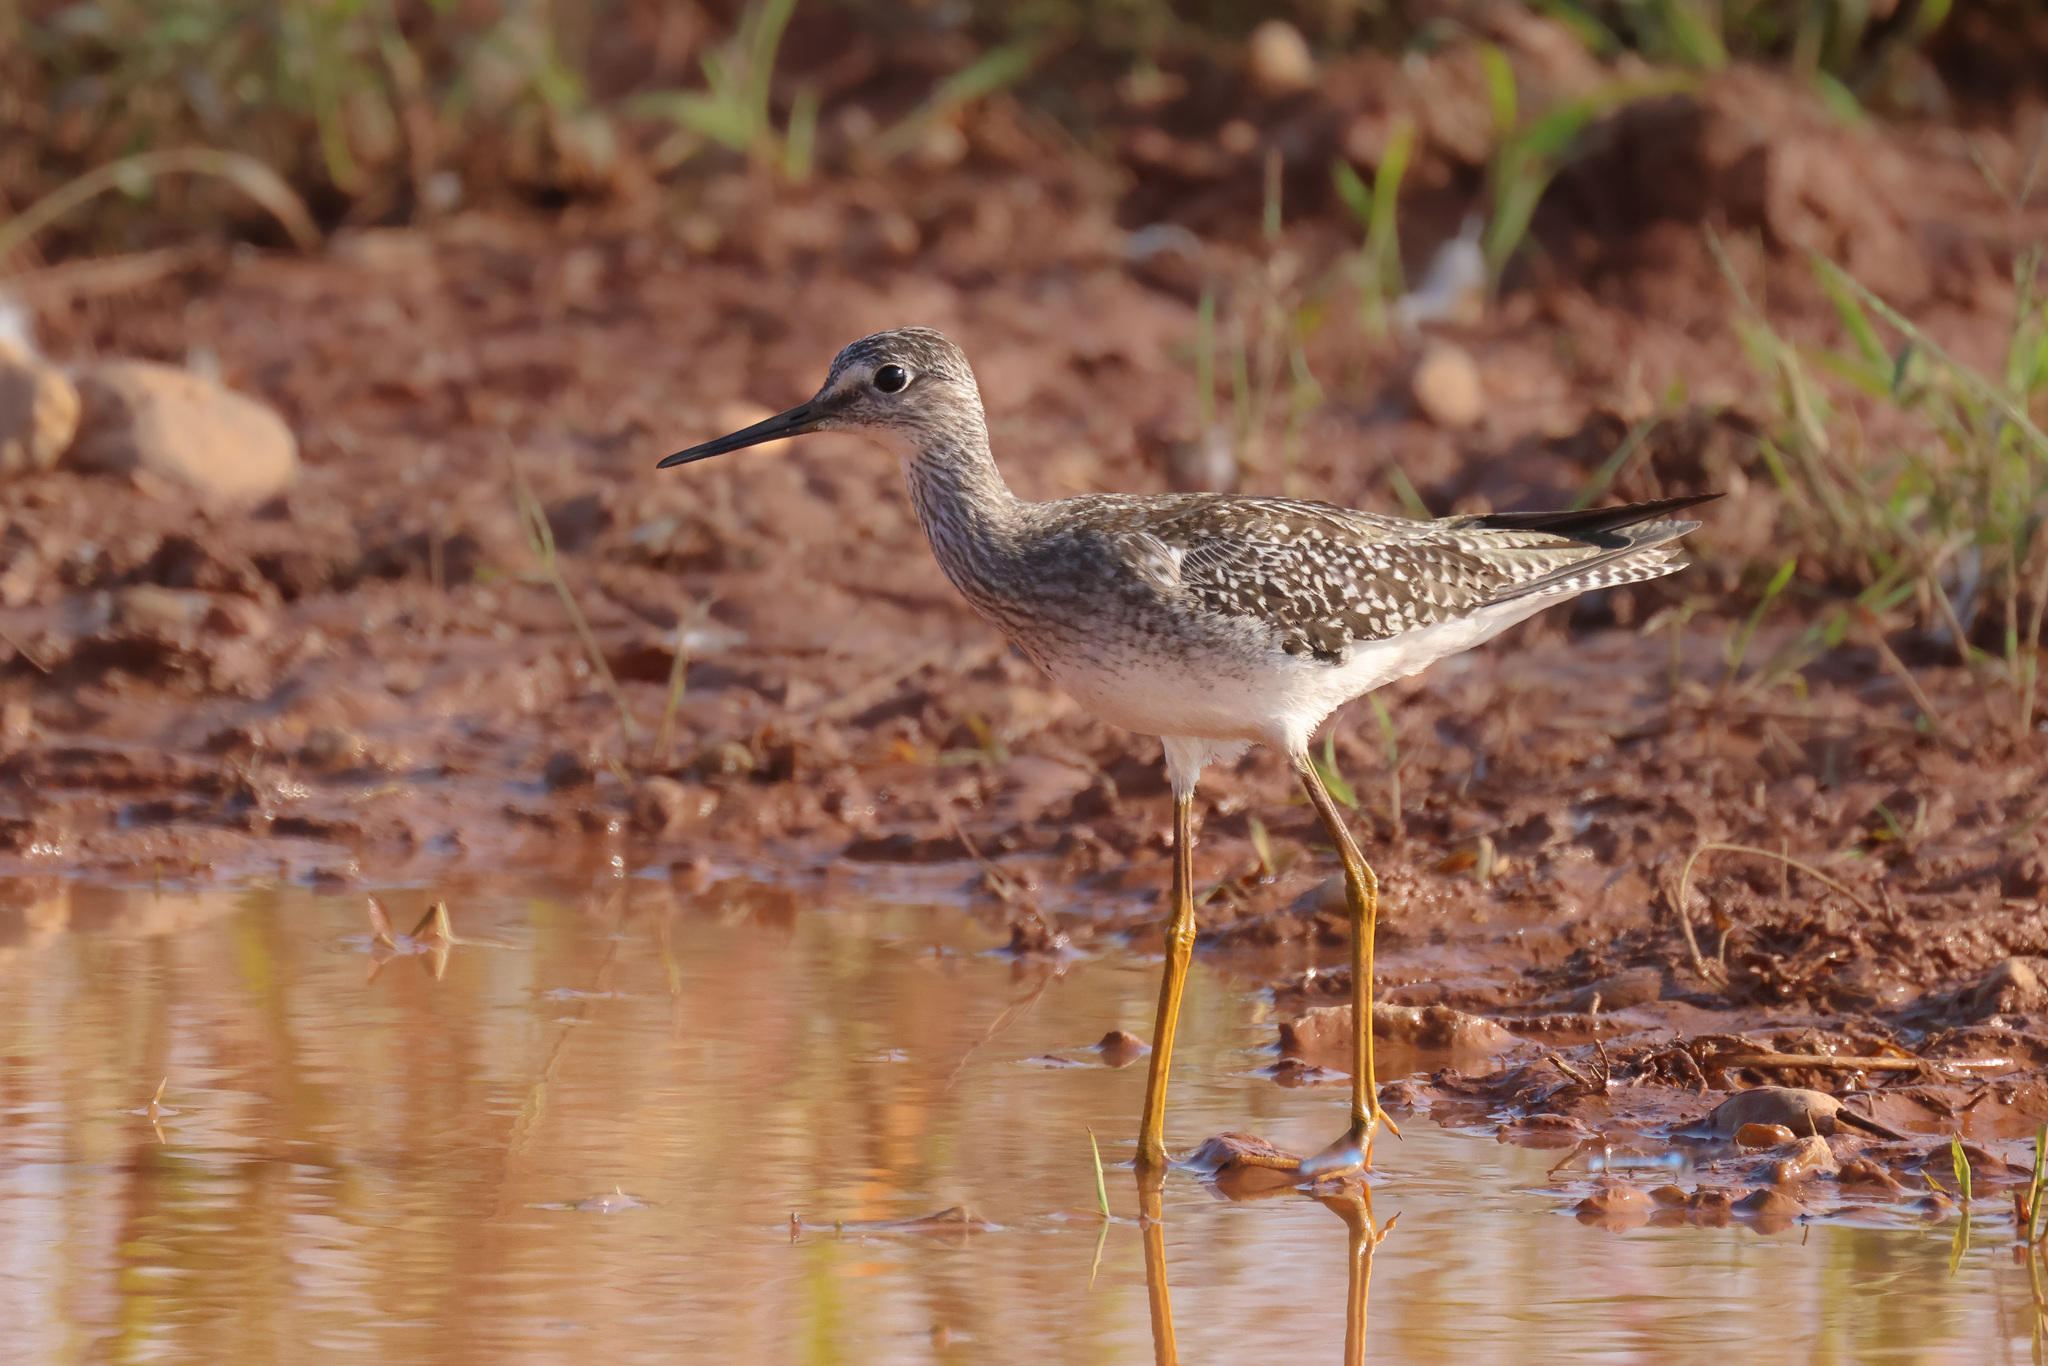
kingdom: Animalia
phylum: Chordata
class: Aves
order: Charadriiformes
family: Scolopacidae
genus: Tringa
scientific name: Tringa flavipes
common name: Lesser yellowlegs
